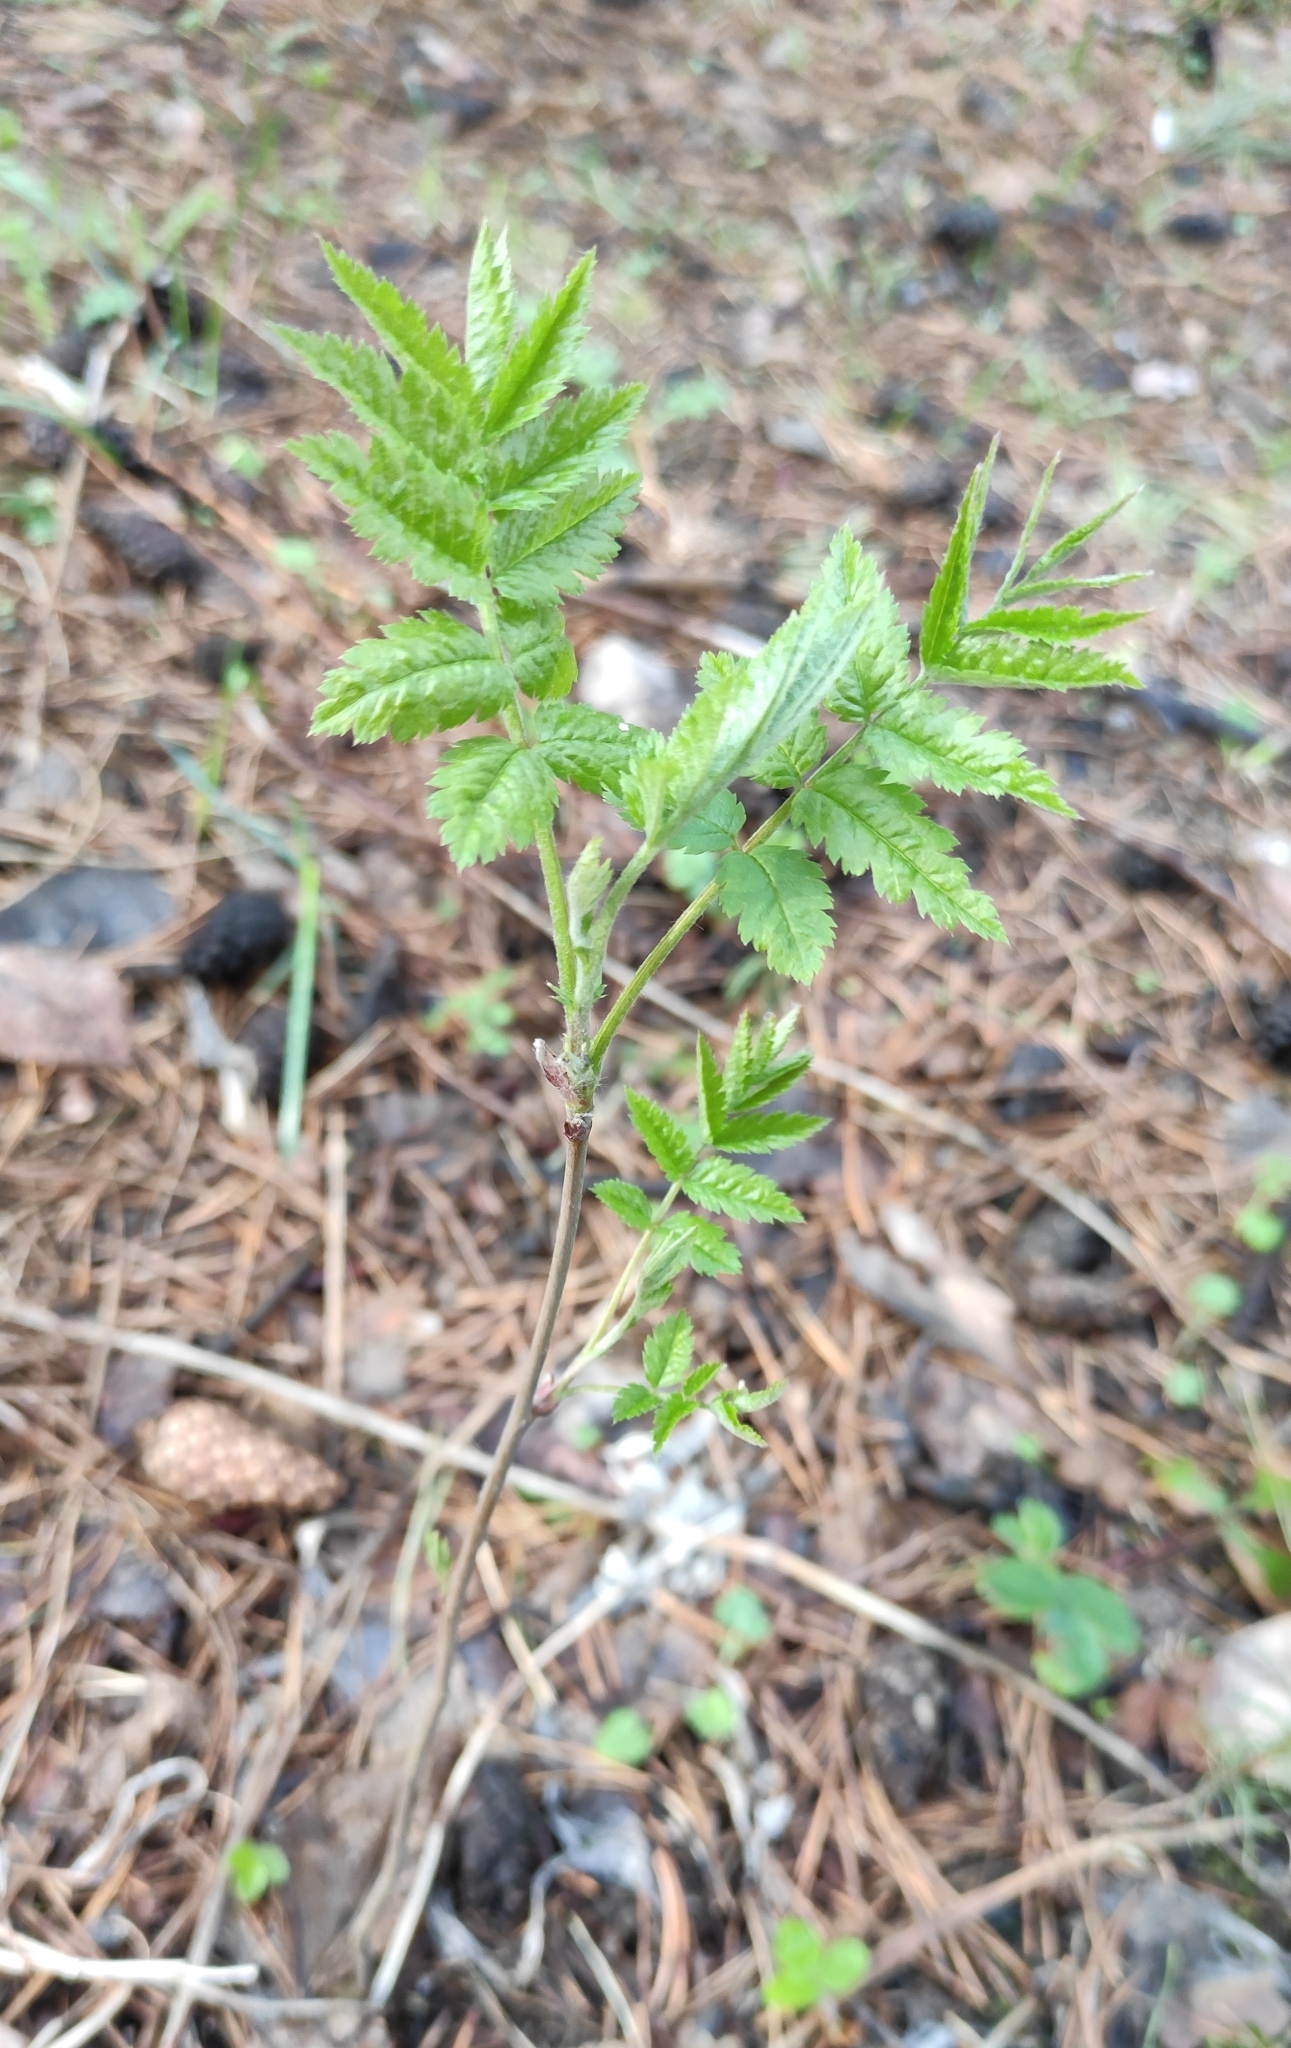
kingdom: Plantae
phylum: Tracheophyta
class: Magnoliopsida
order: Rosales
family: Rosaceae
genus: Sorbus
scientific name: Sorbus aucuparia
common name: Rowan
